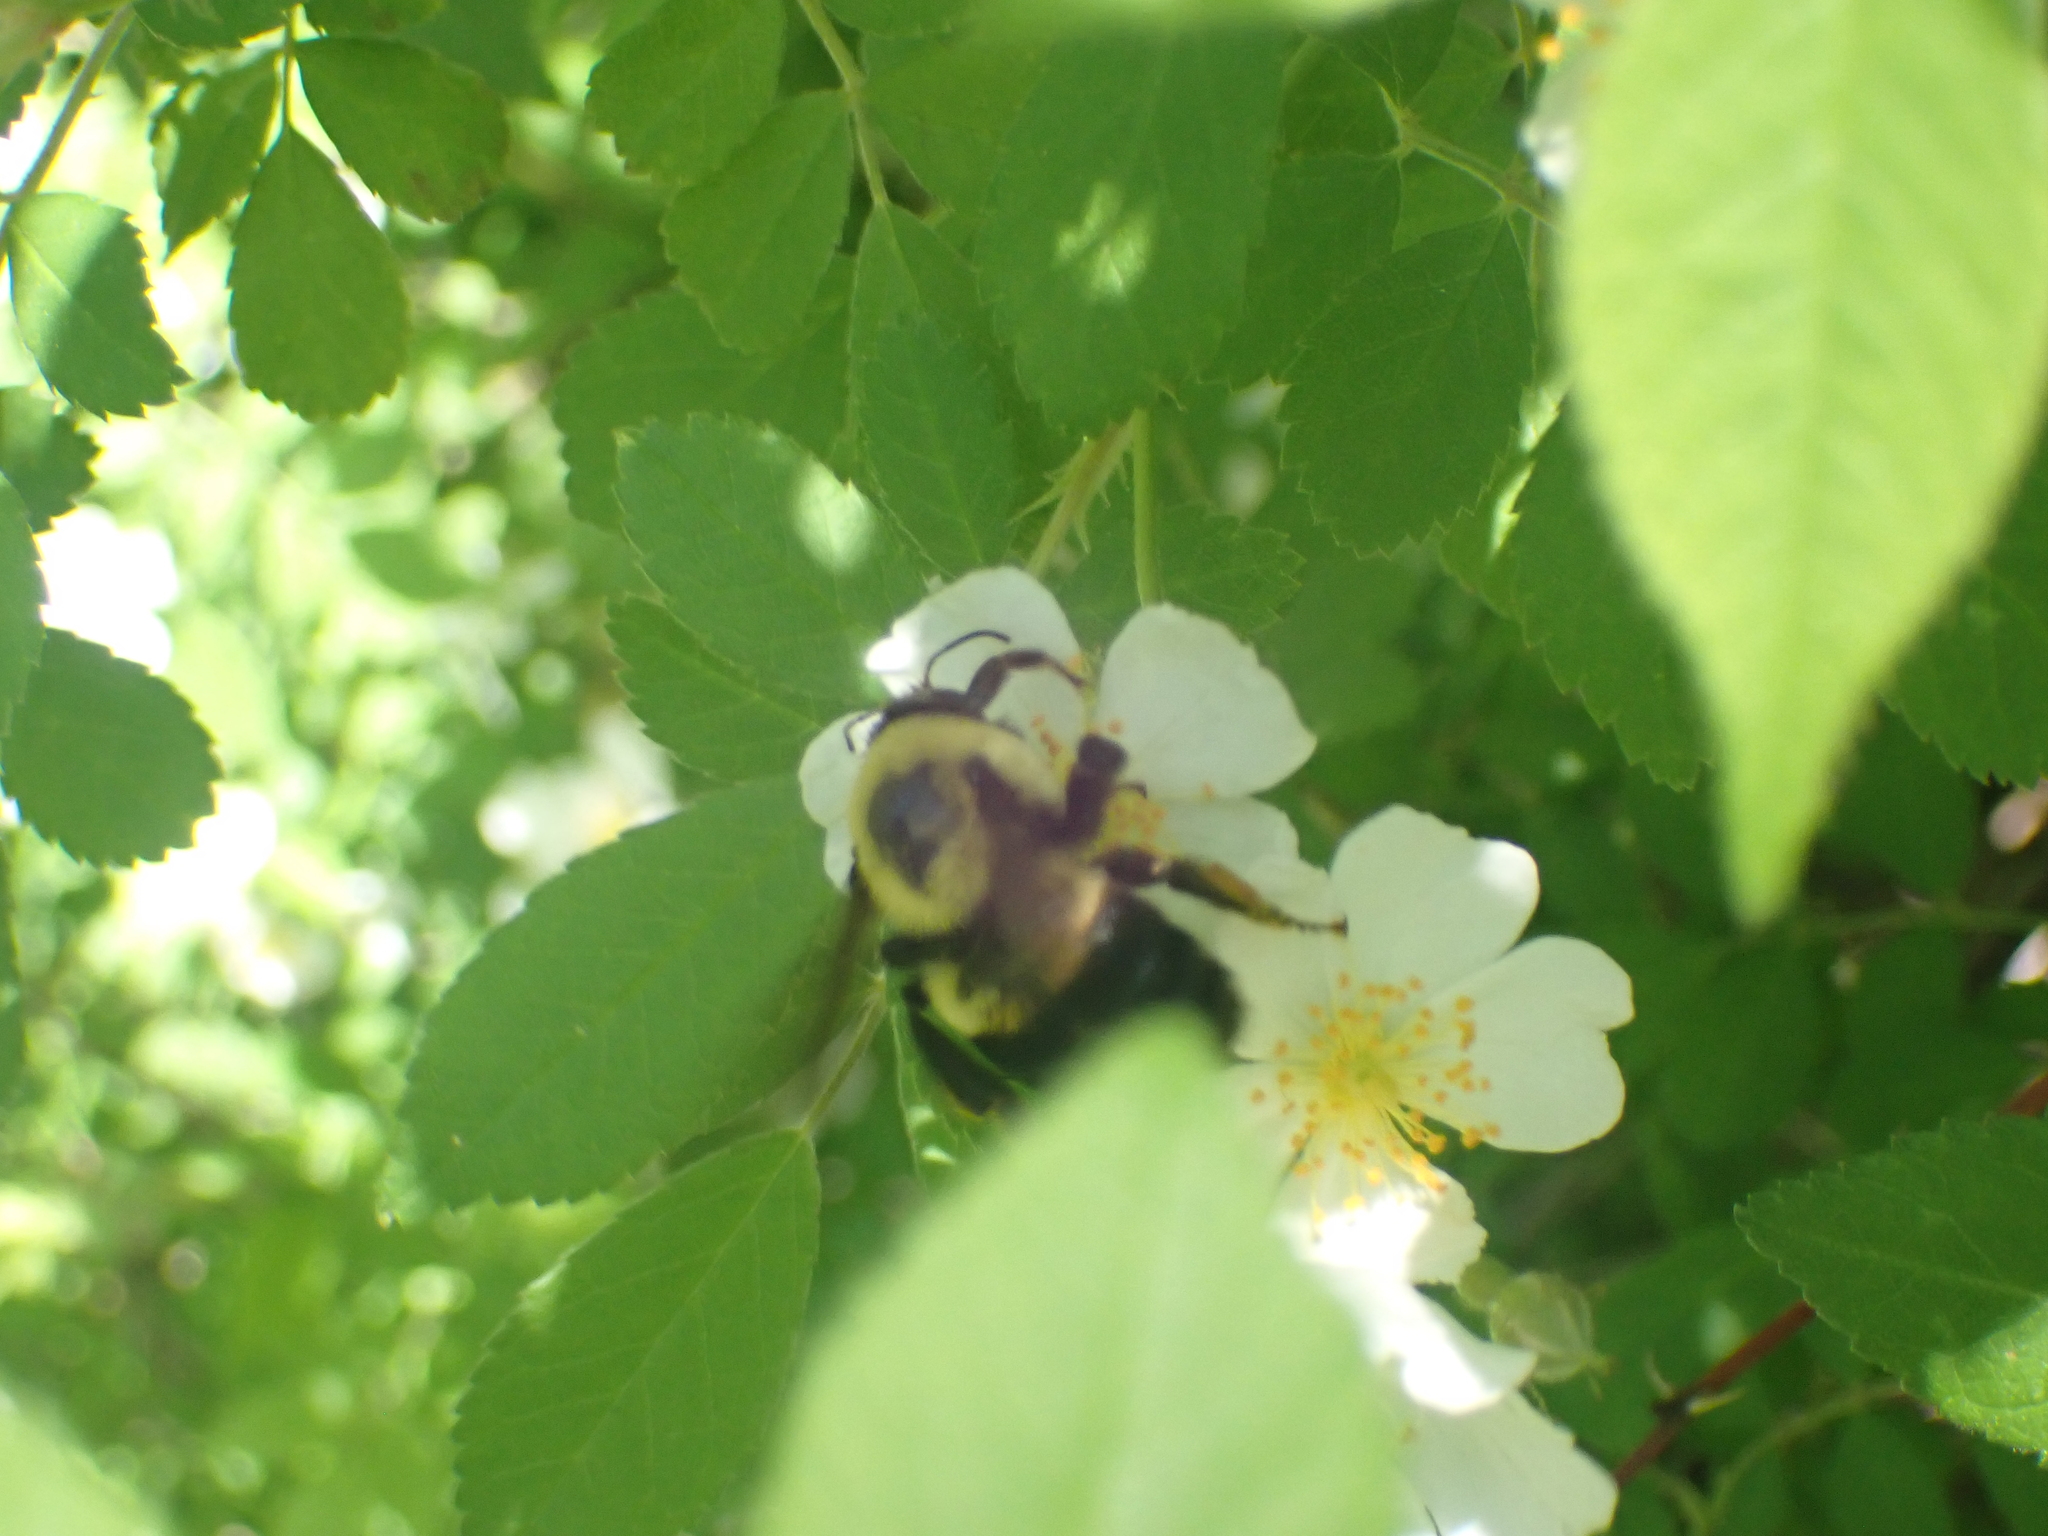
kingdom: Animalia
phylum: Arthropoda
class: Insecta
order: Hymenoptera
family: Apidae
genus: Bombus
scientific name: Bombus griseocollis
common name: Brown-belted bumble bee
